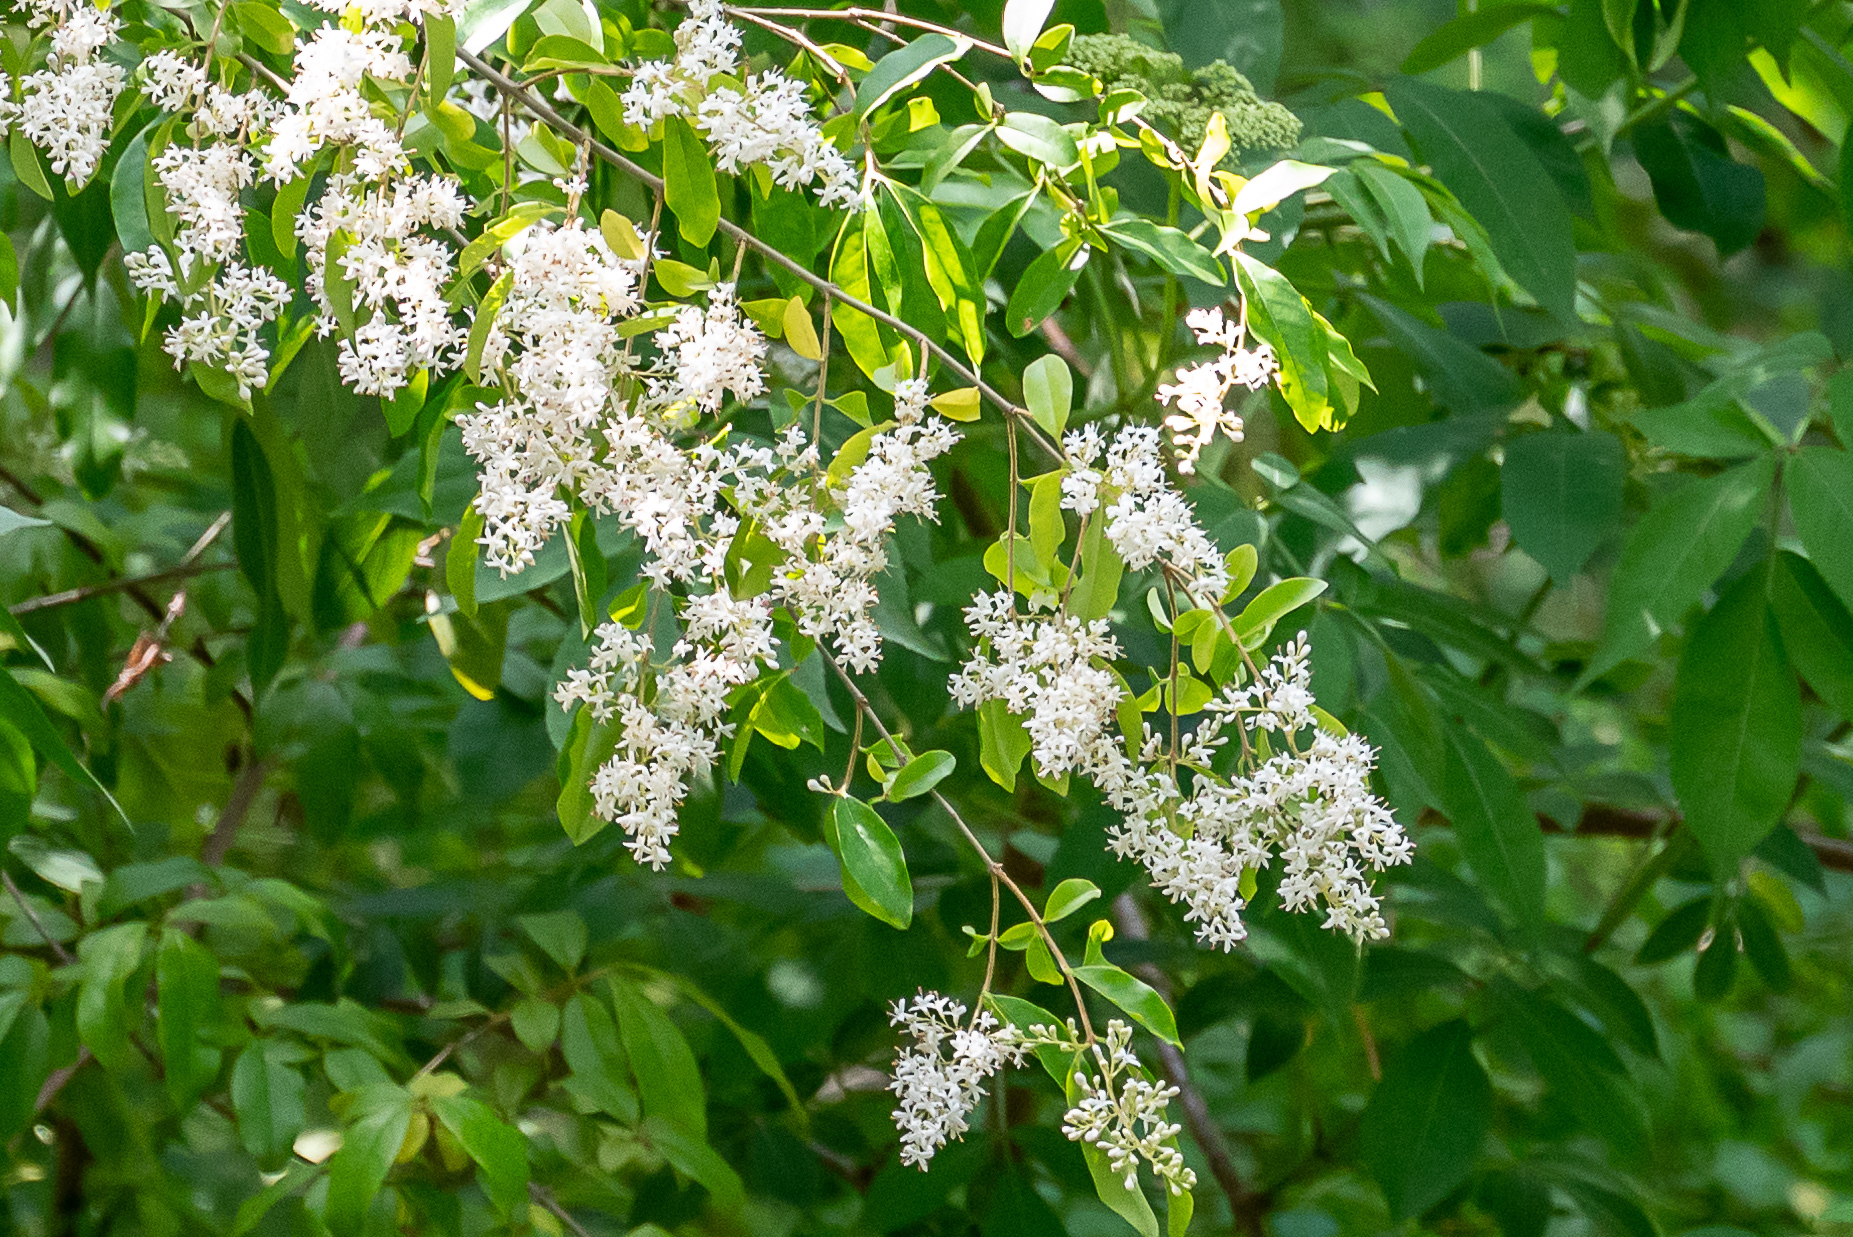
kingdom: Plantae
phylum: Tracheophyta
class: Magnoliopsida
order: Lamiales
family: Oleaceae
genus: Ligustrum
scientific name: Ligustrum sinense
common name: Chinese privet
